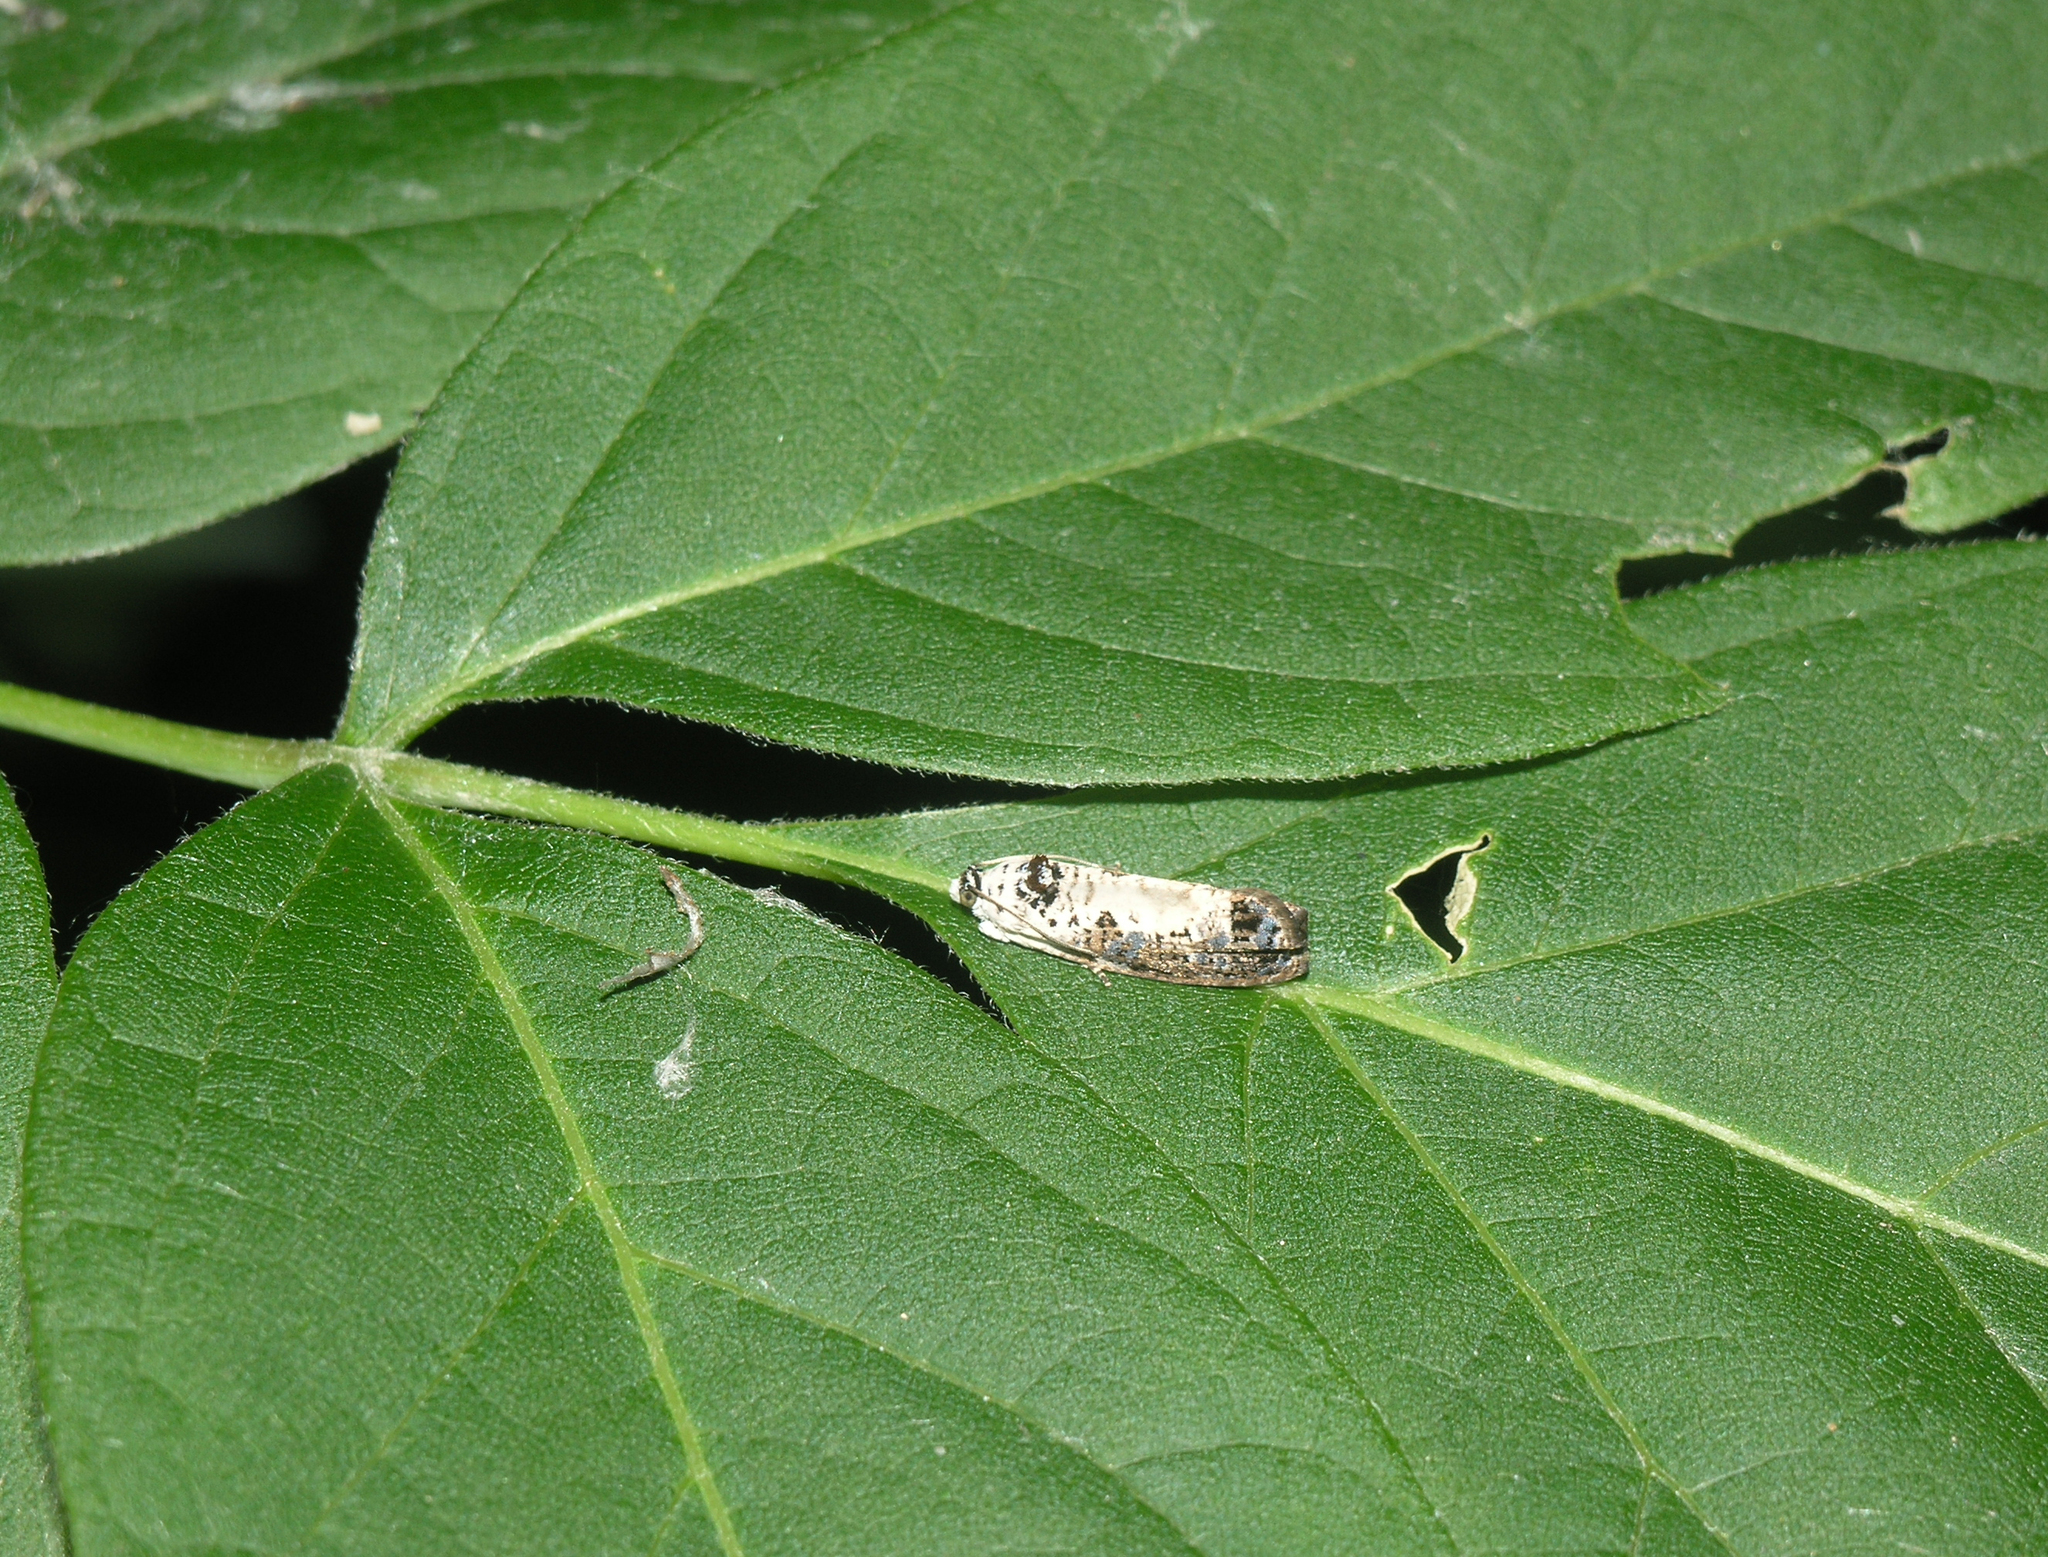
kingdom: Animalia
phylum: Arthropoda
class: Insecta
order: Lepidoptera
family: Tortricidae
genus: Hedya
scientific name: Hedya salicella
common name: Large tortricid moth
